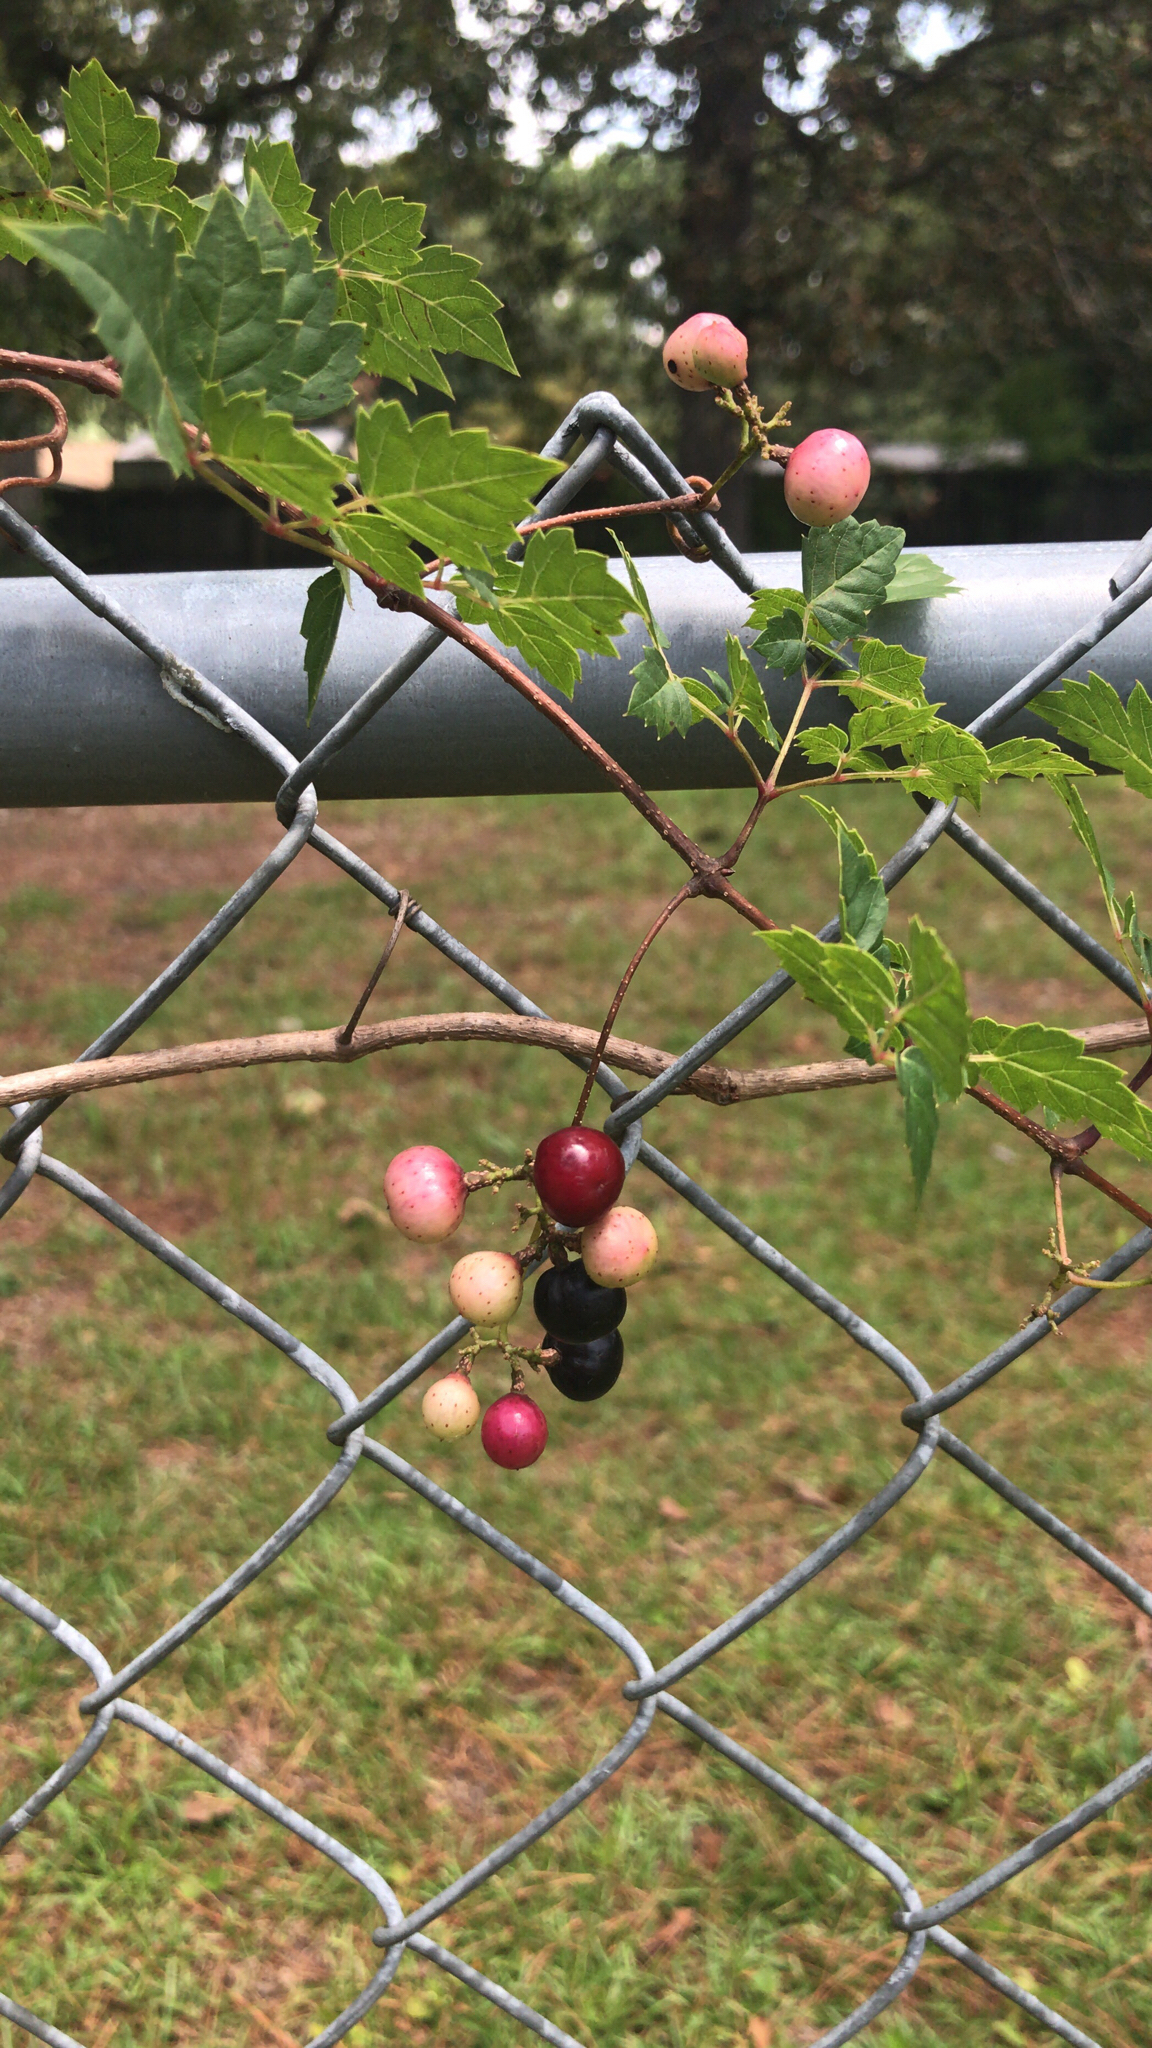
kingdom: Plantae
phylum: Tracheophyta
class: Magnoliopsida
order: Vitales
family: Vitaceae
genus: Nekemias
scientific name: Nekemias arborea
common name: Peppervine
